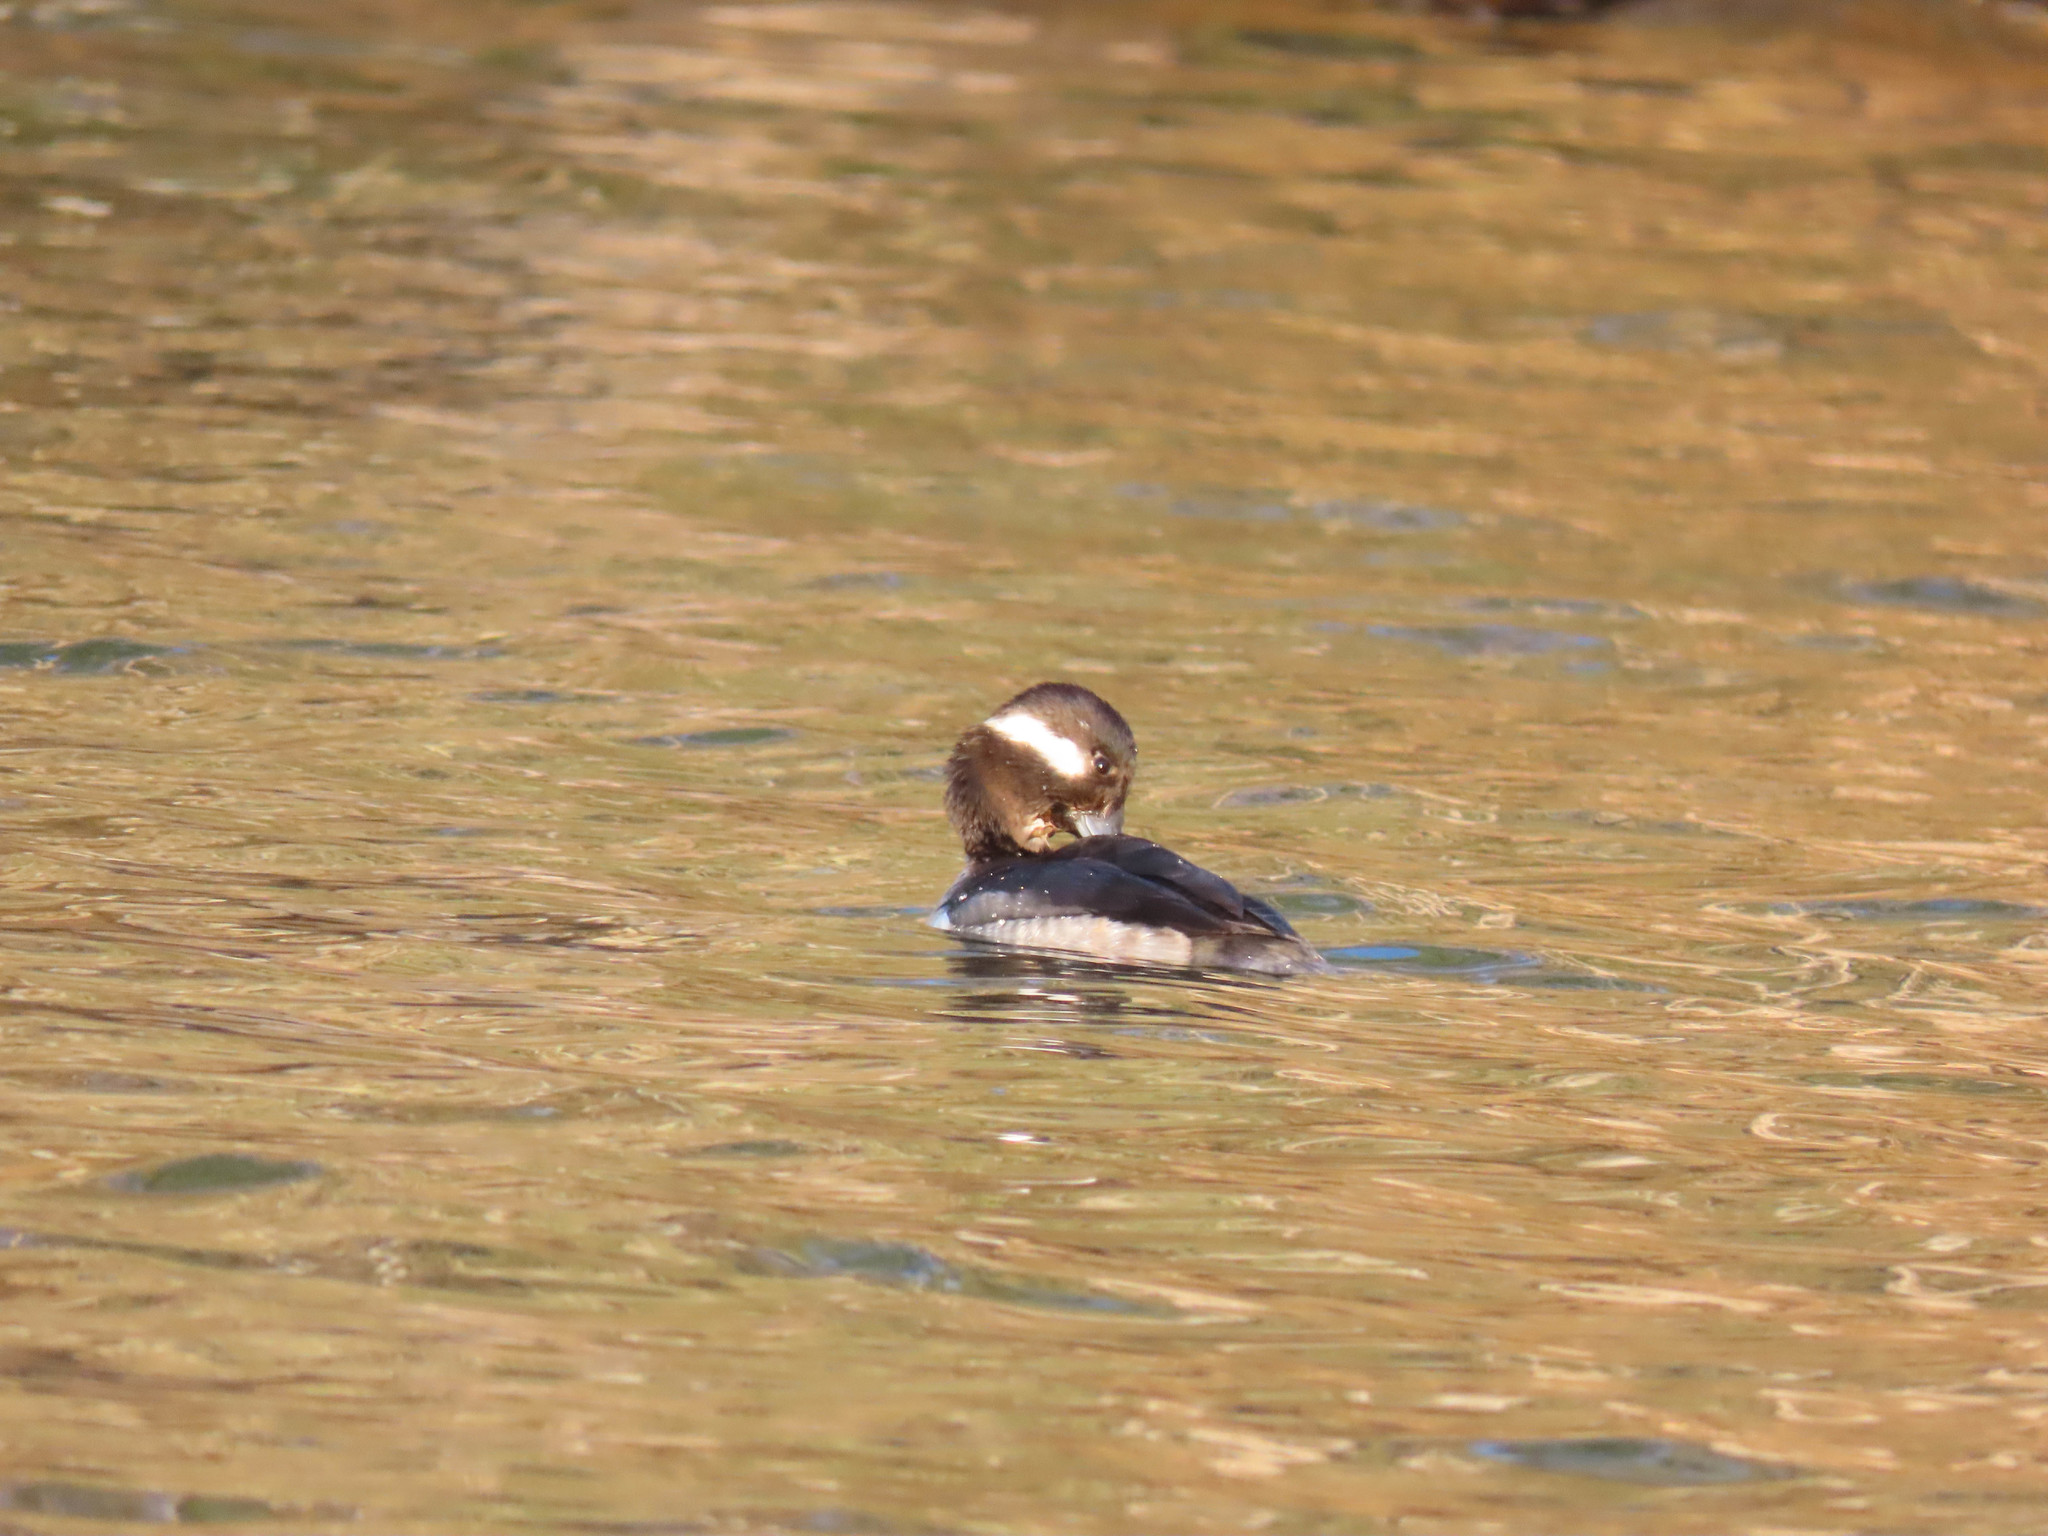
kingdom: Animalia
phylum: Chordata
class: Aves
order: Anseriformes
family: Anatidae
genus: Bucephala
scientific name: Bucephala albeola
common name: Bufflehead
